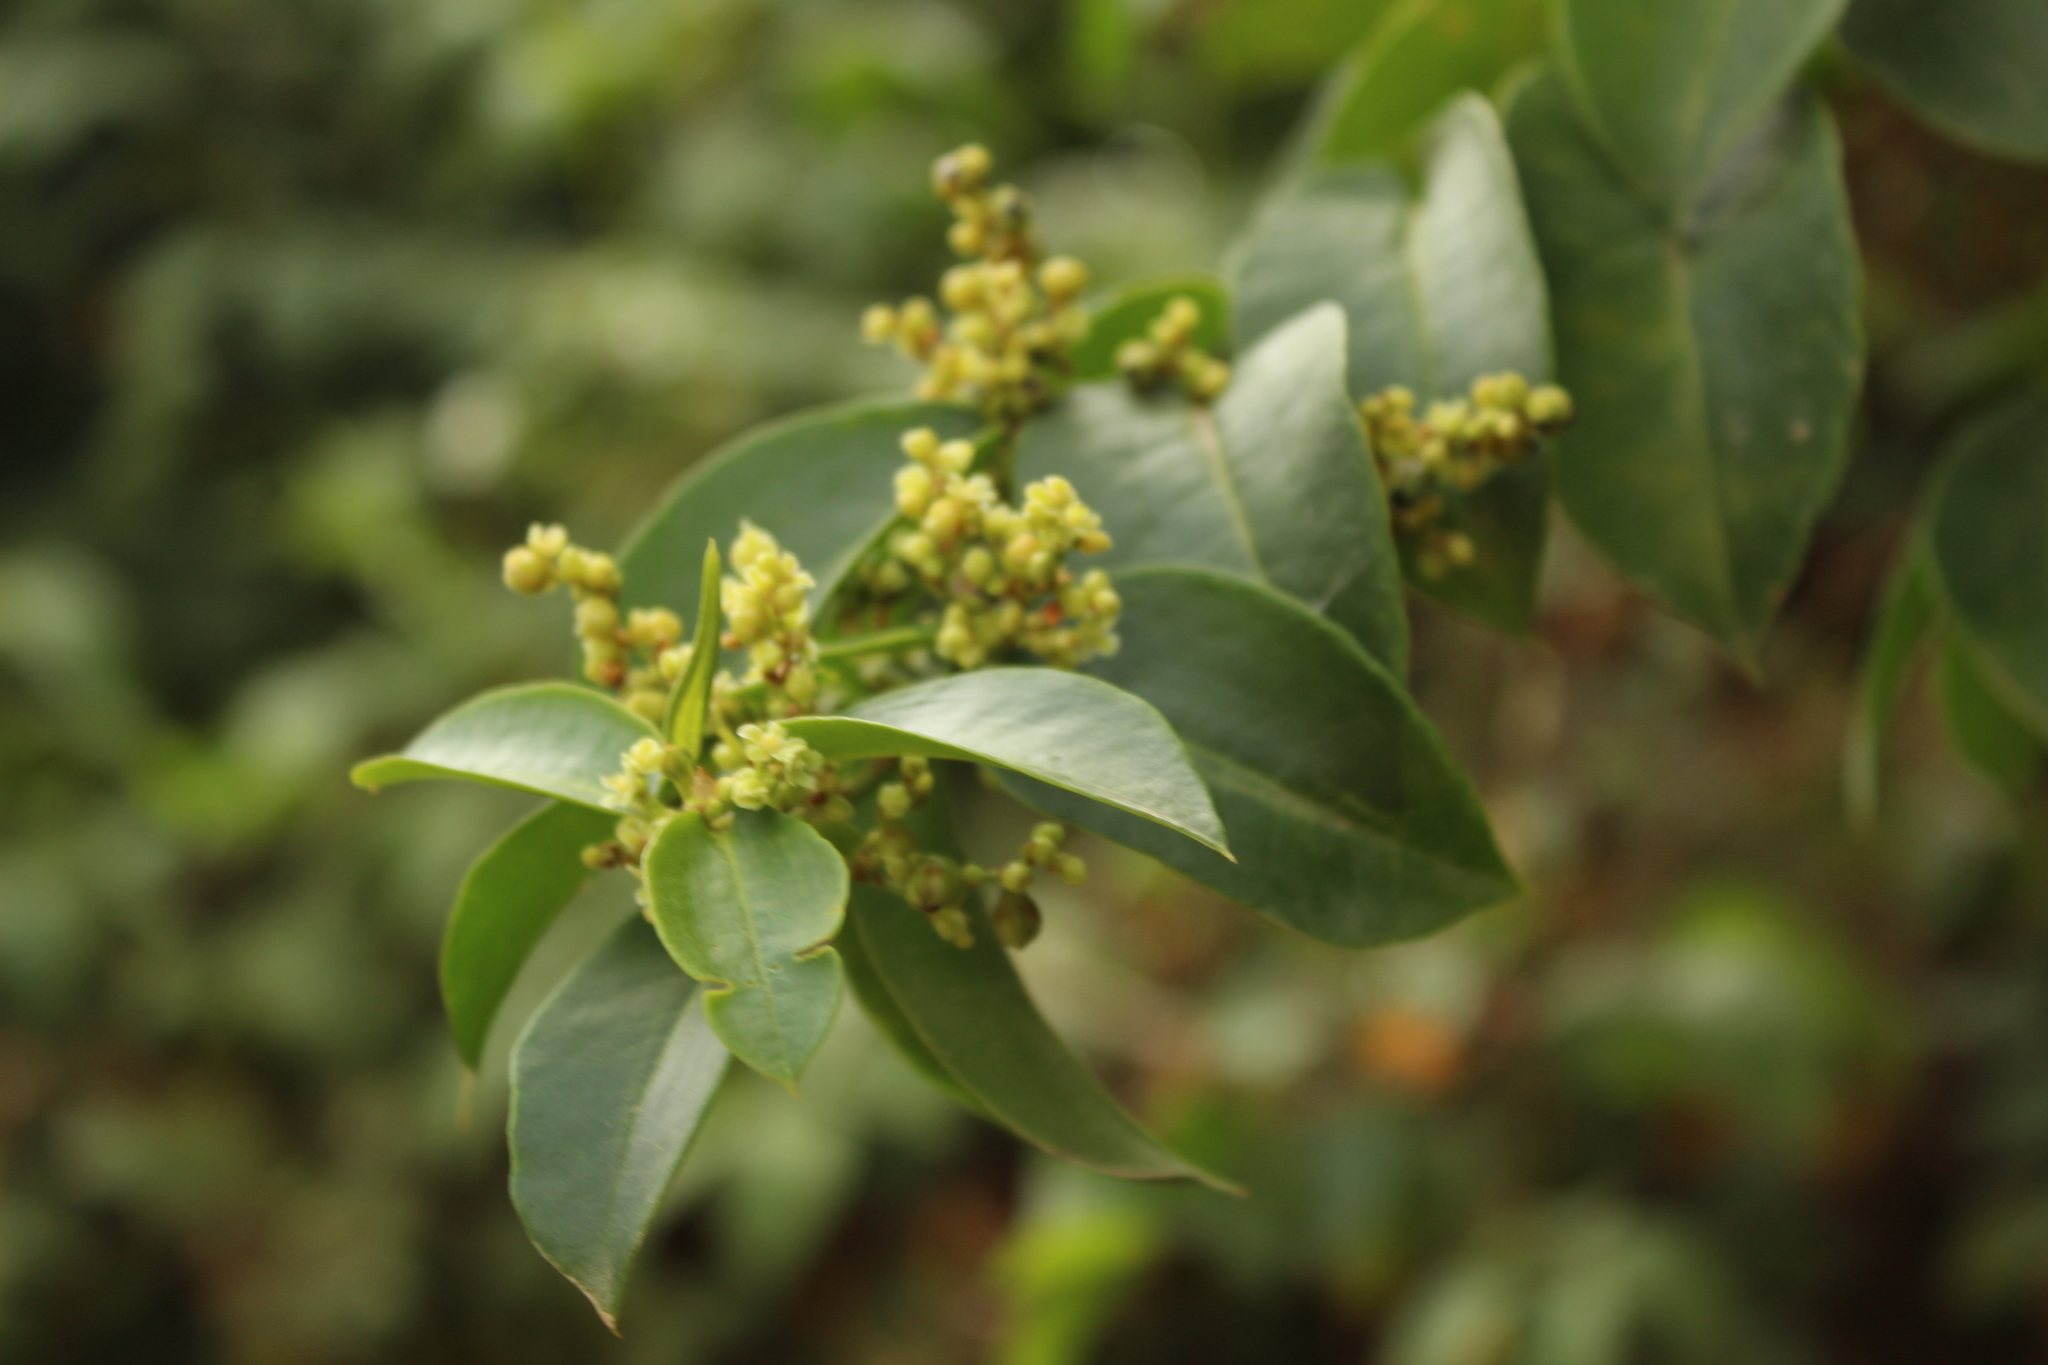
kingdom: Plantae
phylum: Tracheophyta
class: Magnoliopsida
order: Caryophyllales
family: Polygonaceae
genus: Muehlenbeckia
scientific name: Muehlenbeckia tamnifolia
